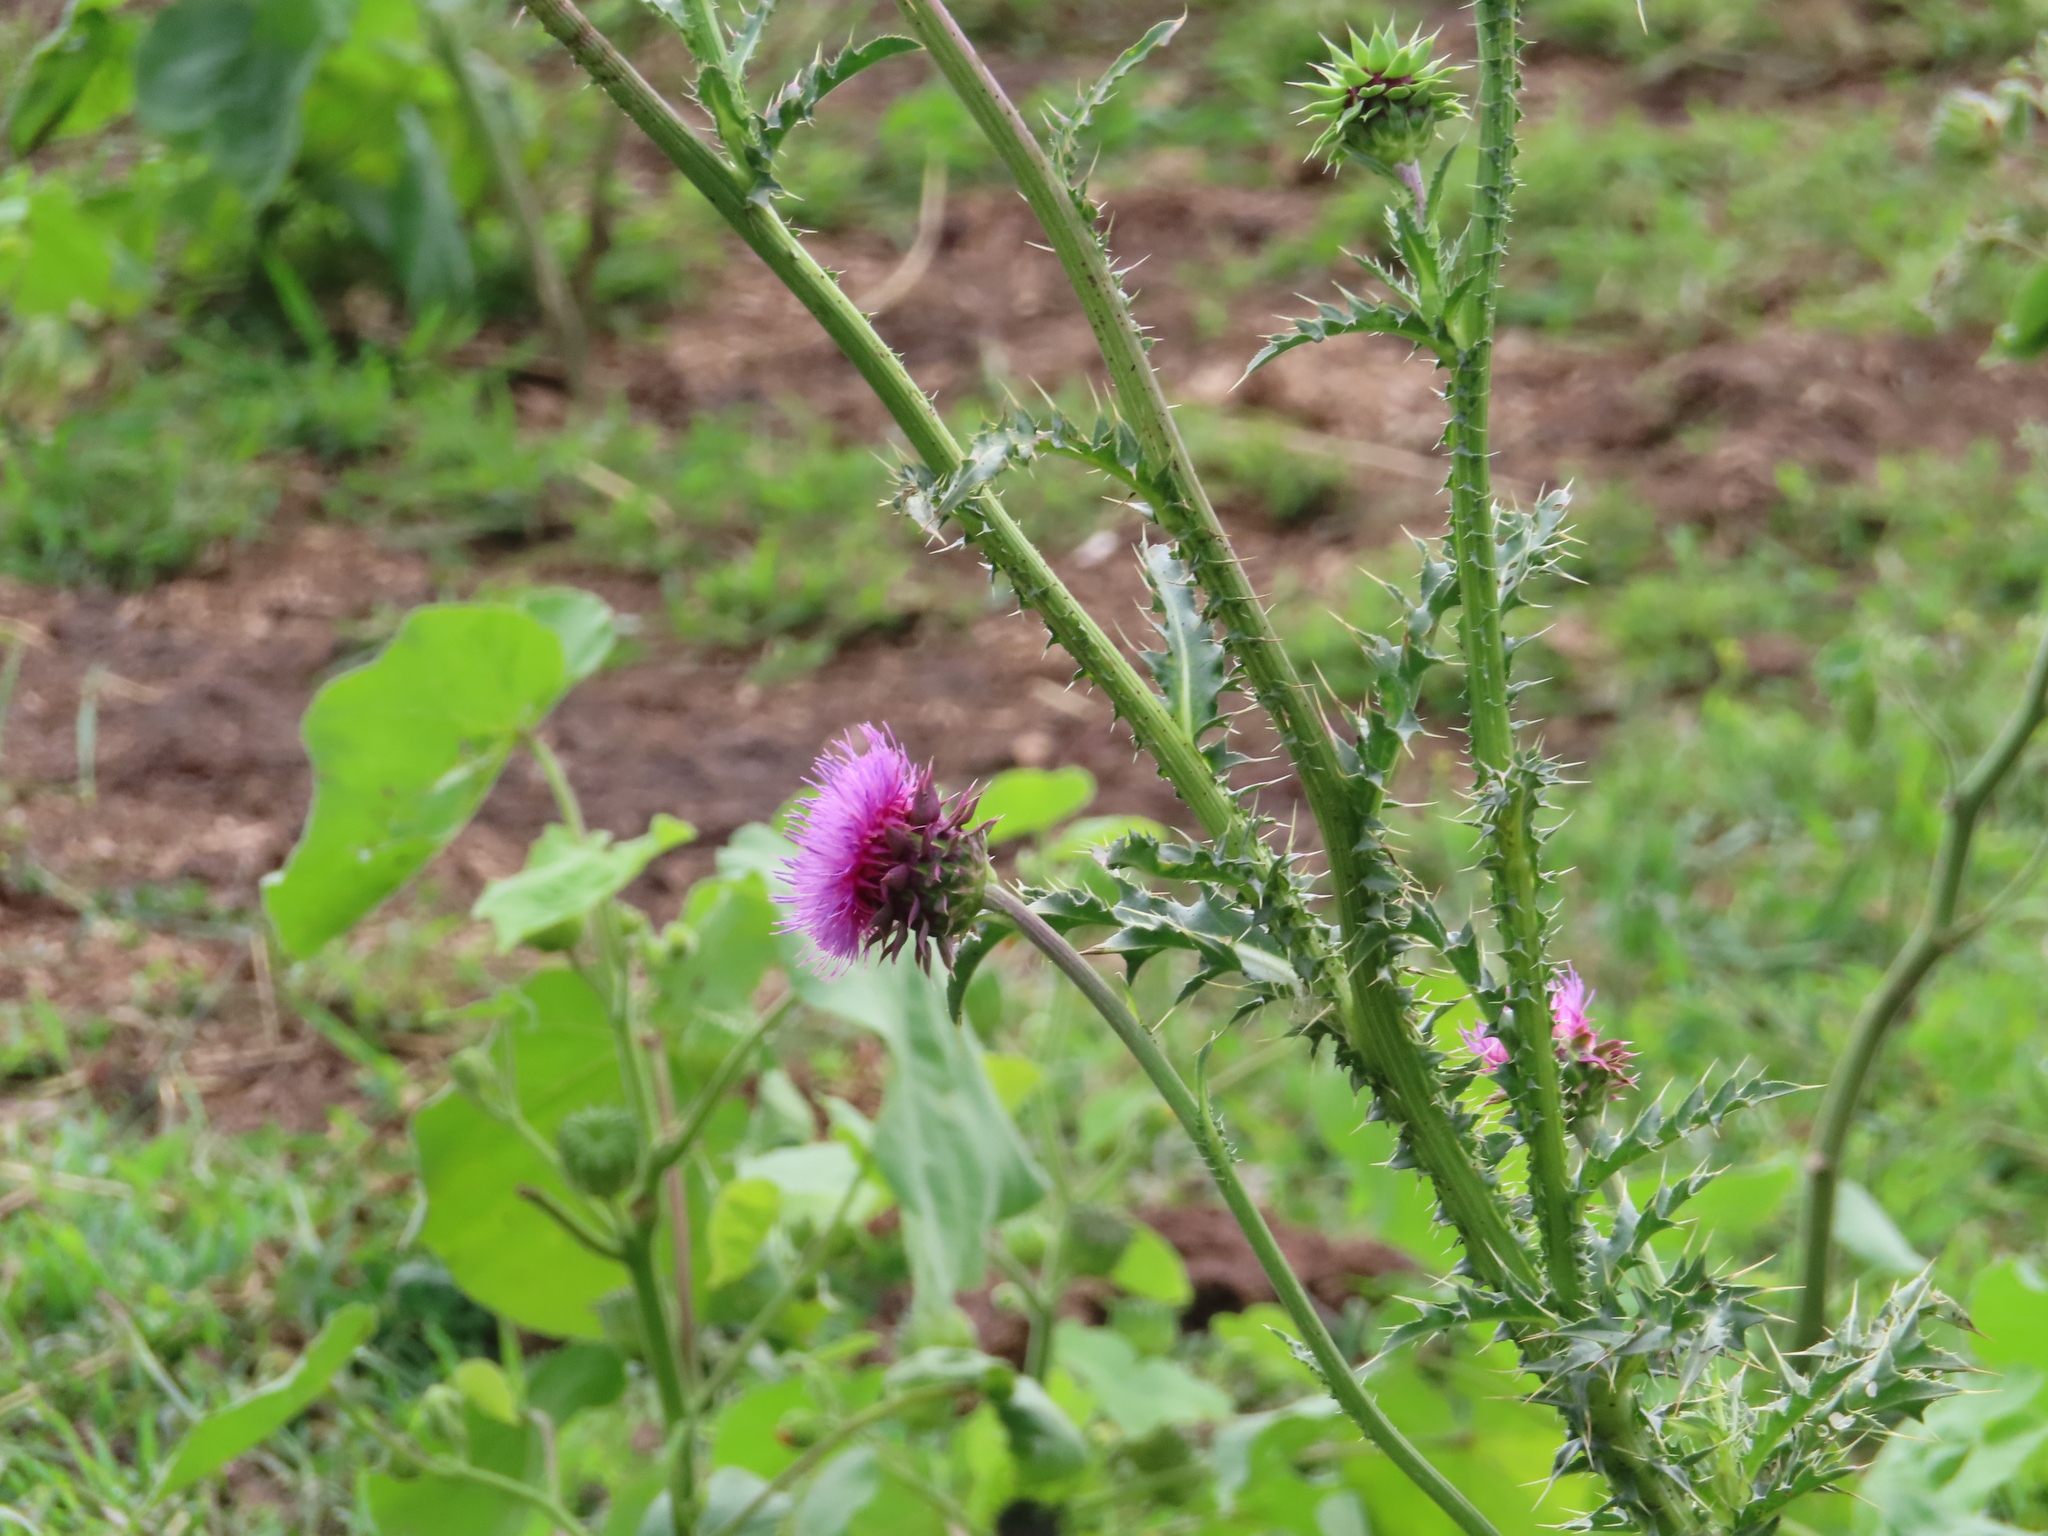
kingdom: Plantae
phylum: Tracheophyta
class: Magnoliopsida
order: Asterales
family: Asteraceae
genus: Carduus
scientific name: Carduus nutans
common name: Musk thistle
